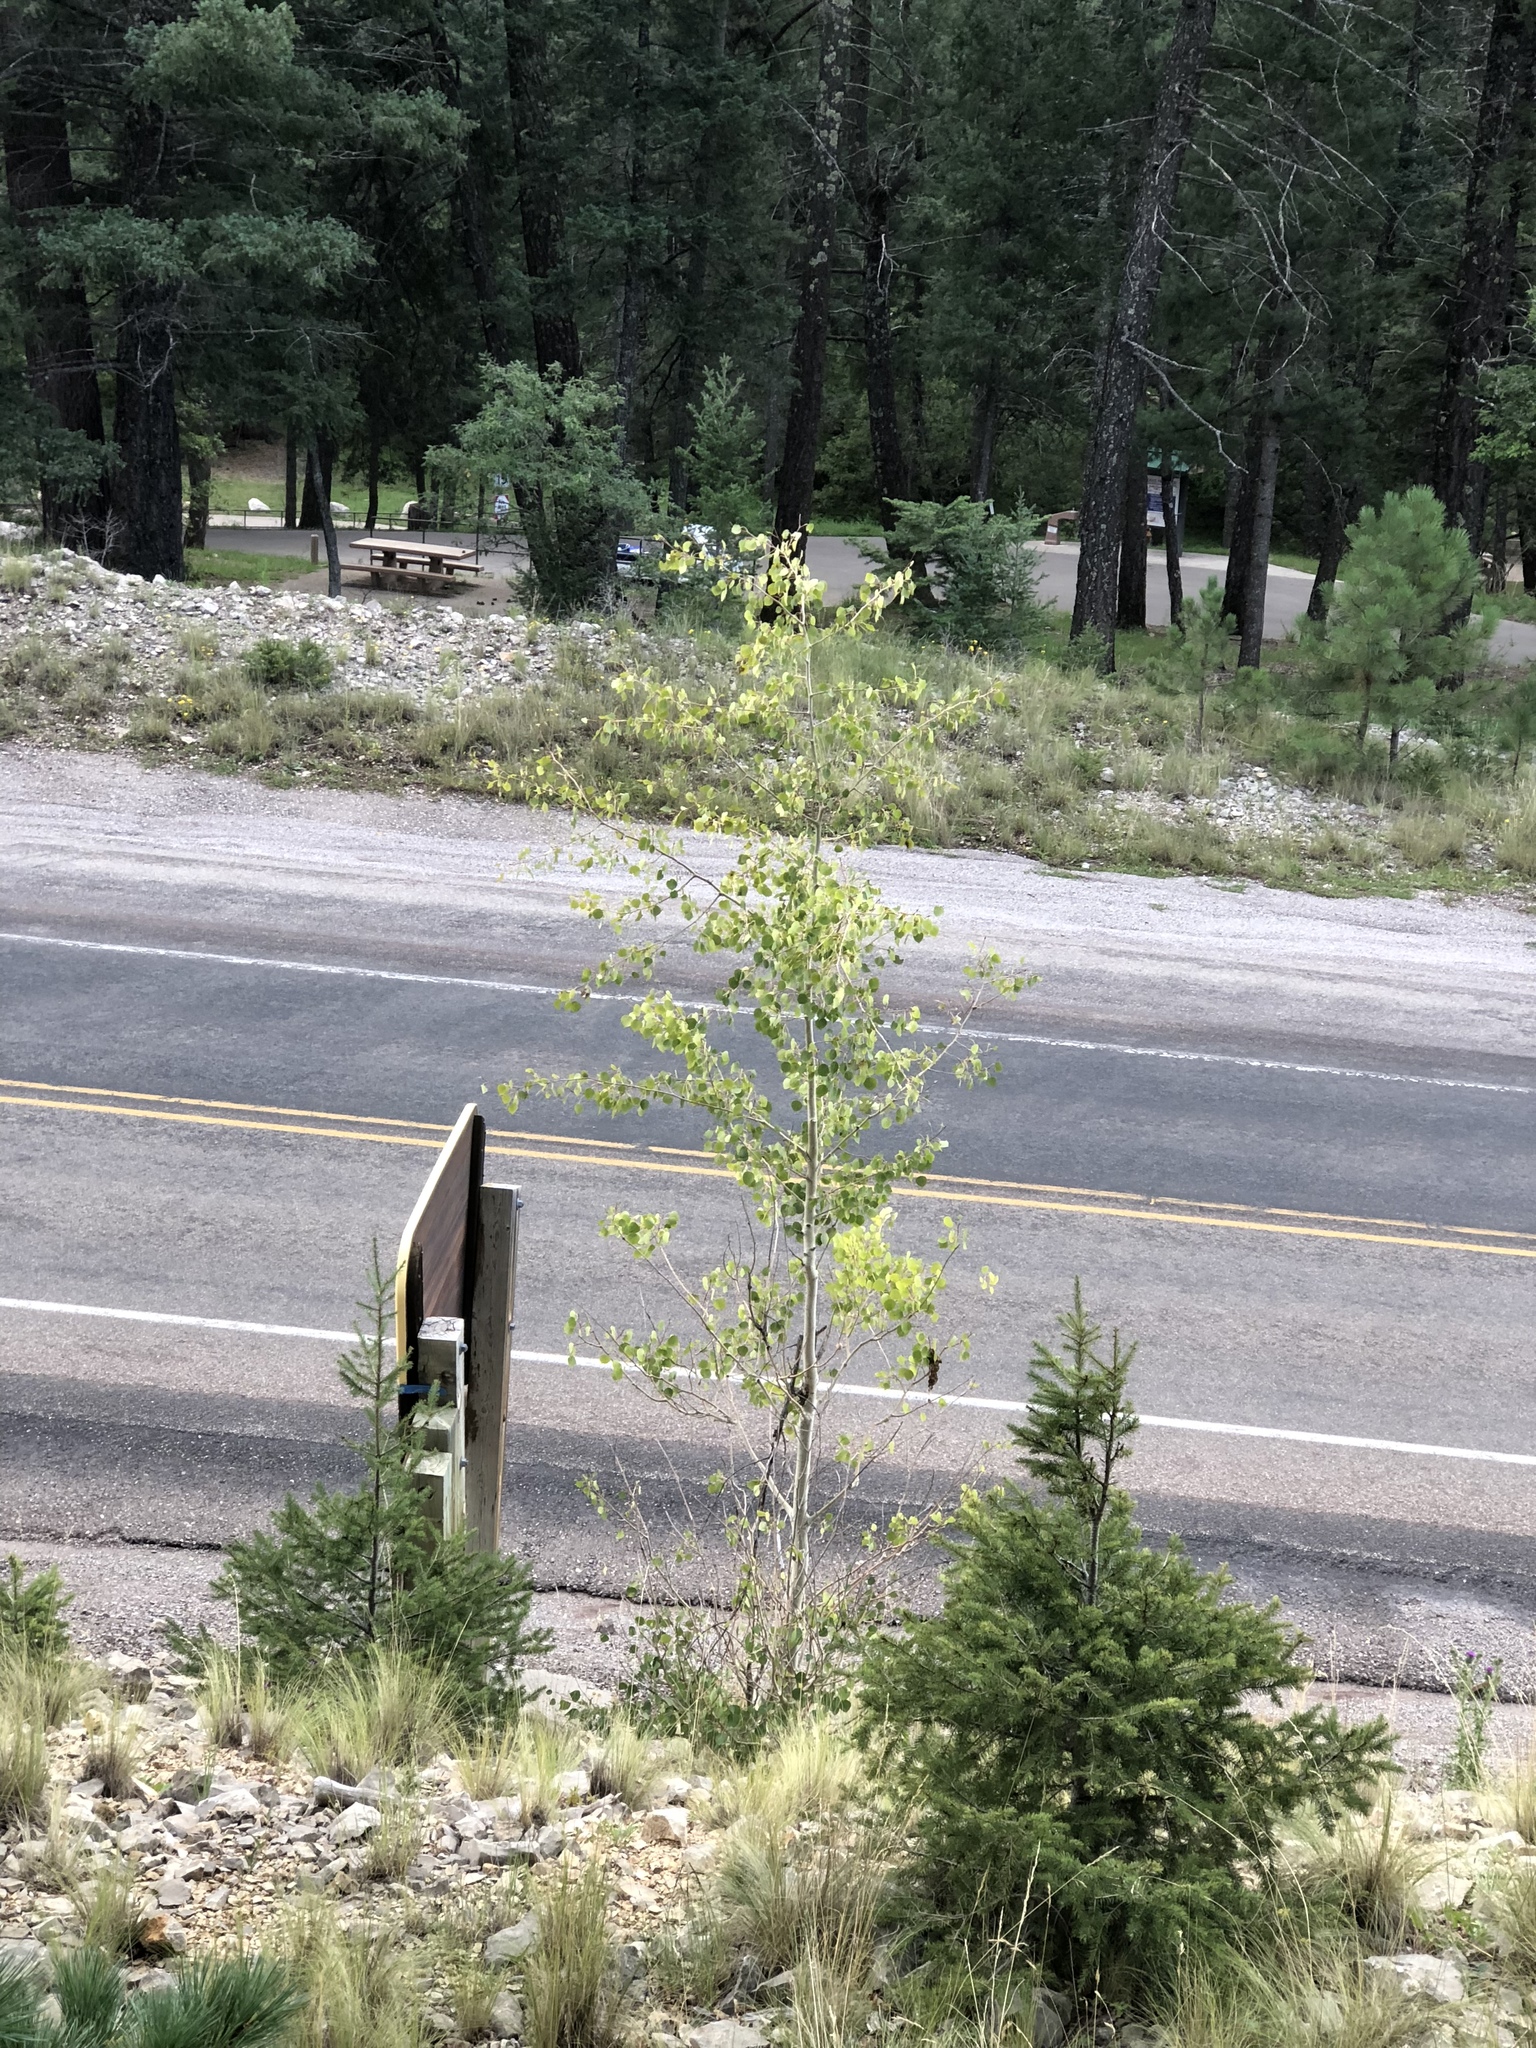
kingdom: Plantae
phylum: Tracheophyta
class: Magnoliopsida
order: Malpighiales
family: Salicaceae
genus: Populus
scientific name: Populus tremuloides
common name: Quaking aspen
